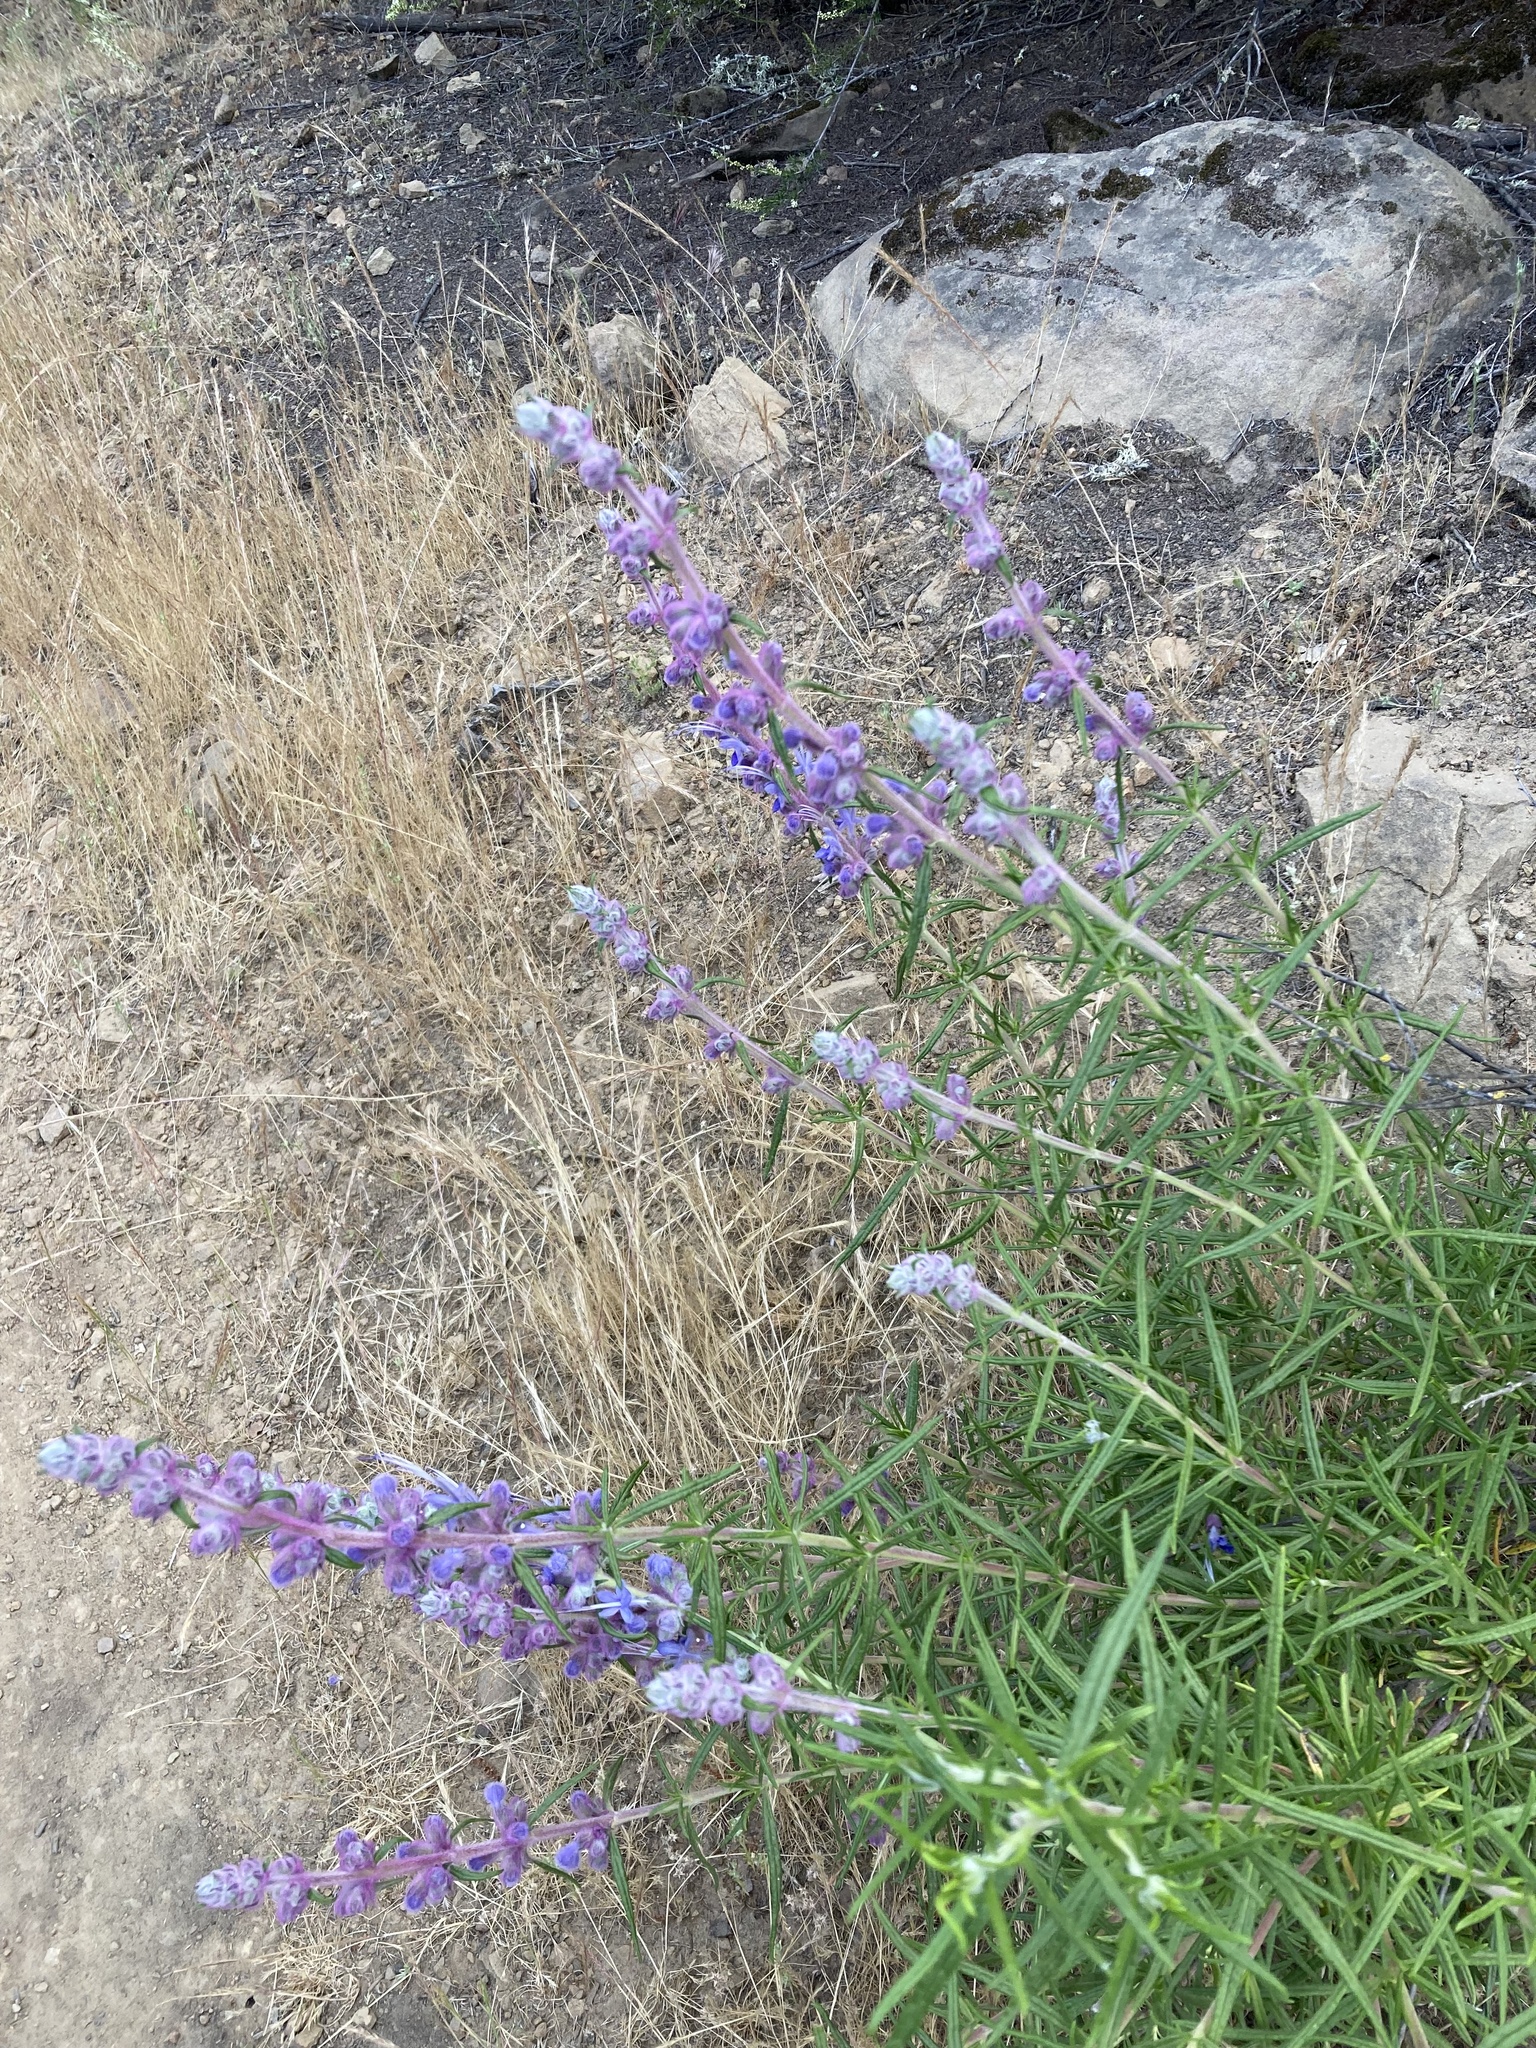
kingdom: Plantae
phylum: Tracheophyta
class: Magnoliopsida
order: Lamiales
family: Lamiaceae
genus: Trichostema
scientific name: Trichostema lanatum
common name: Woolly bluecurls
